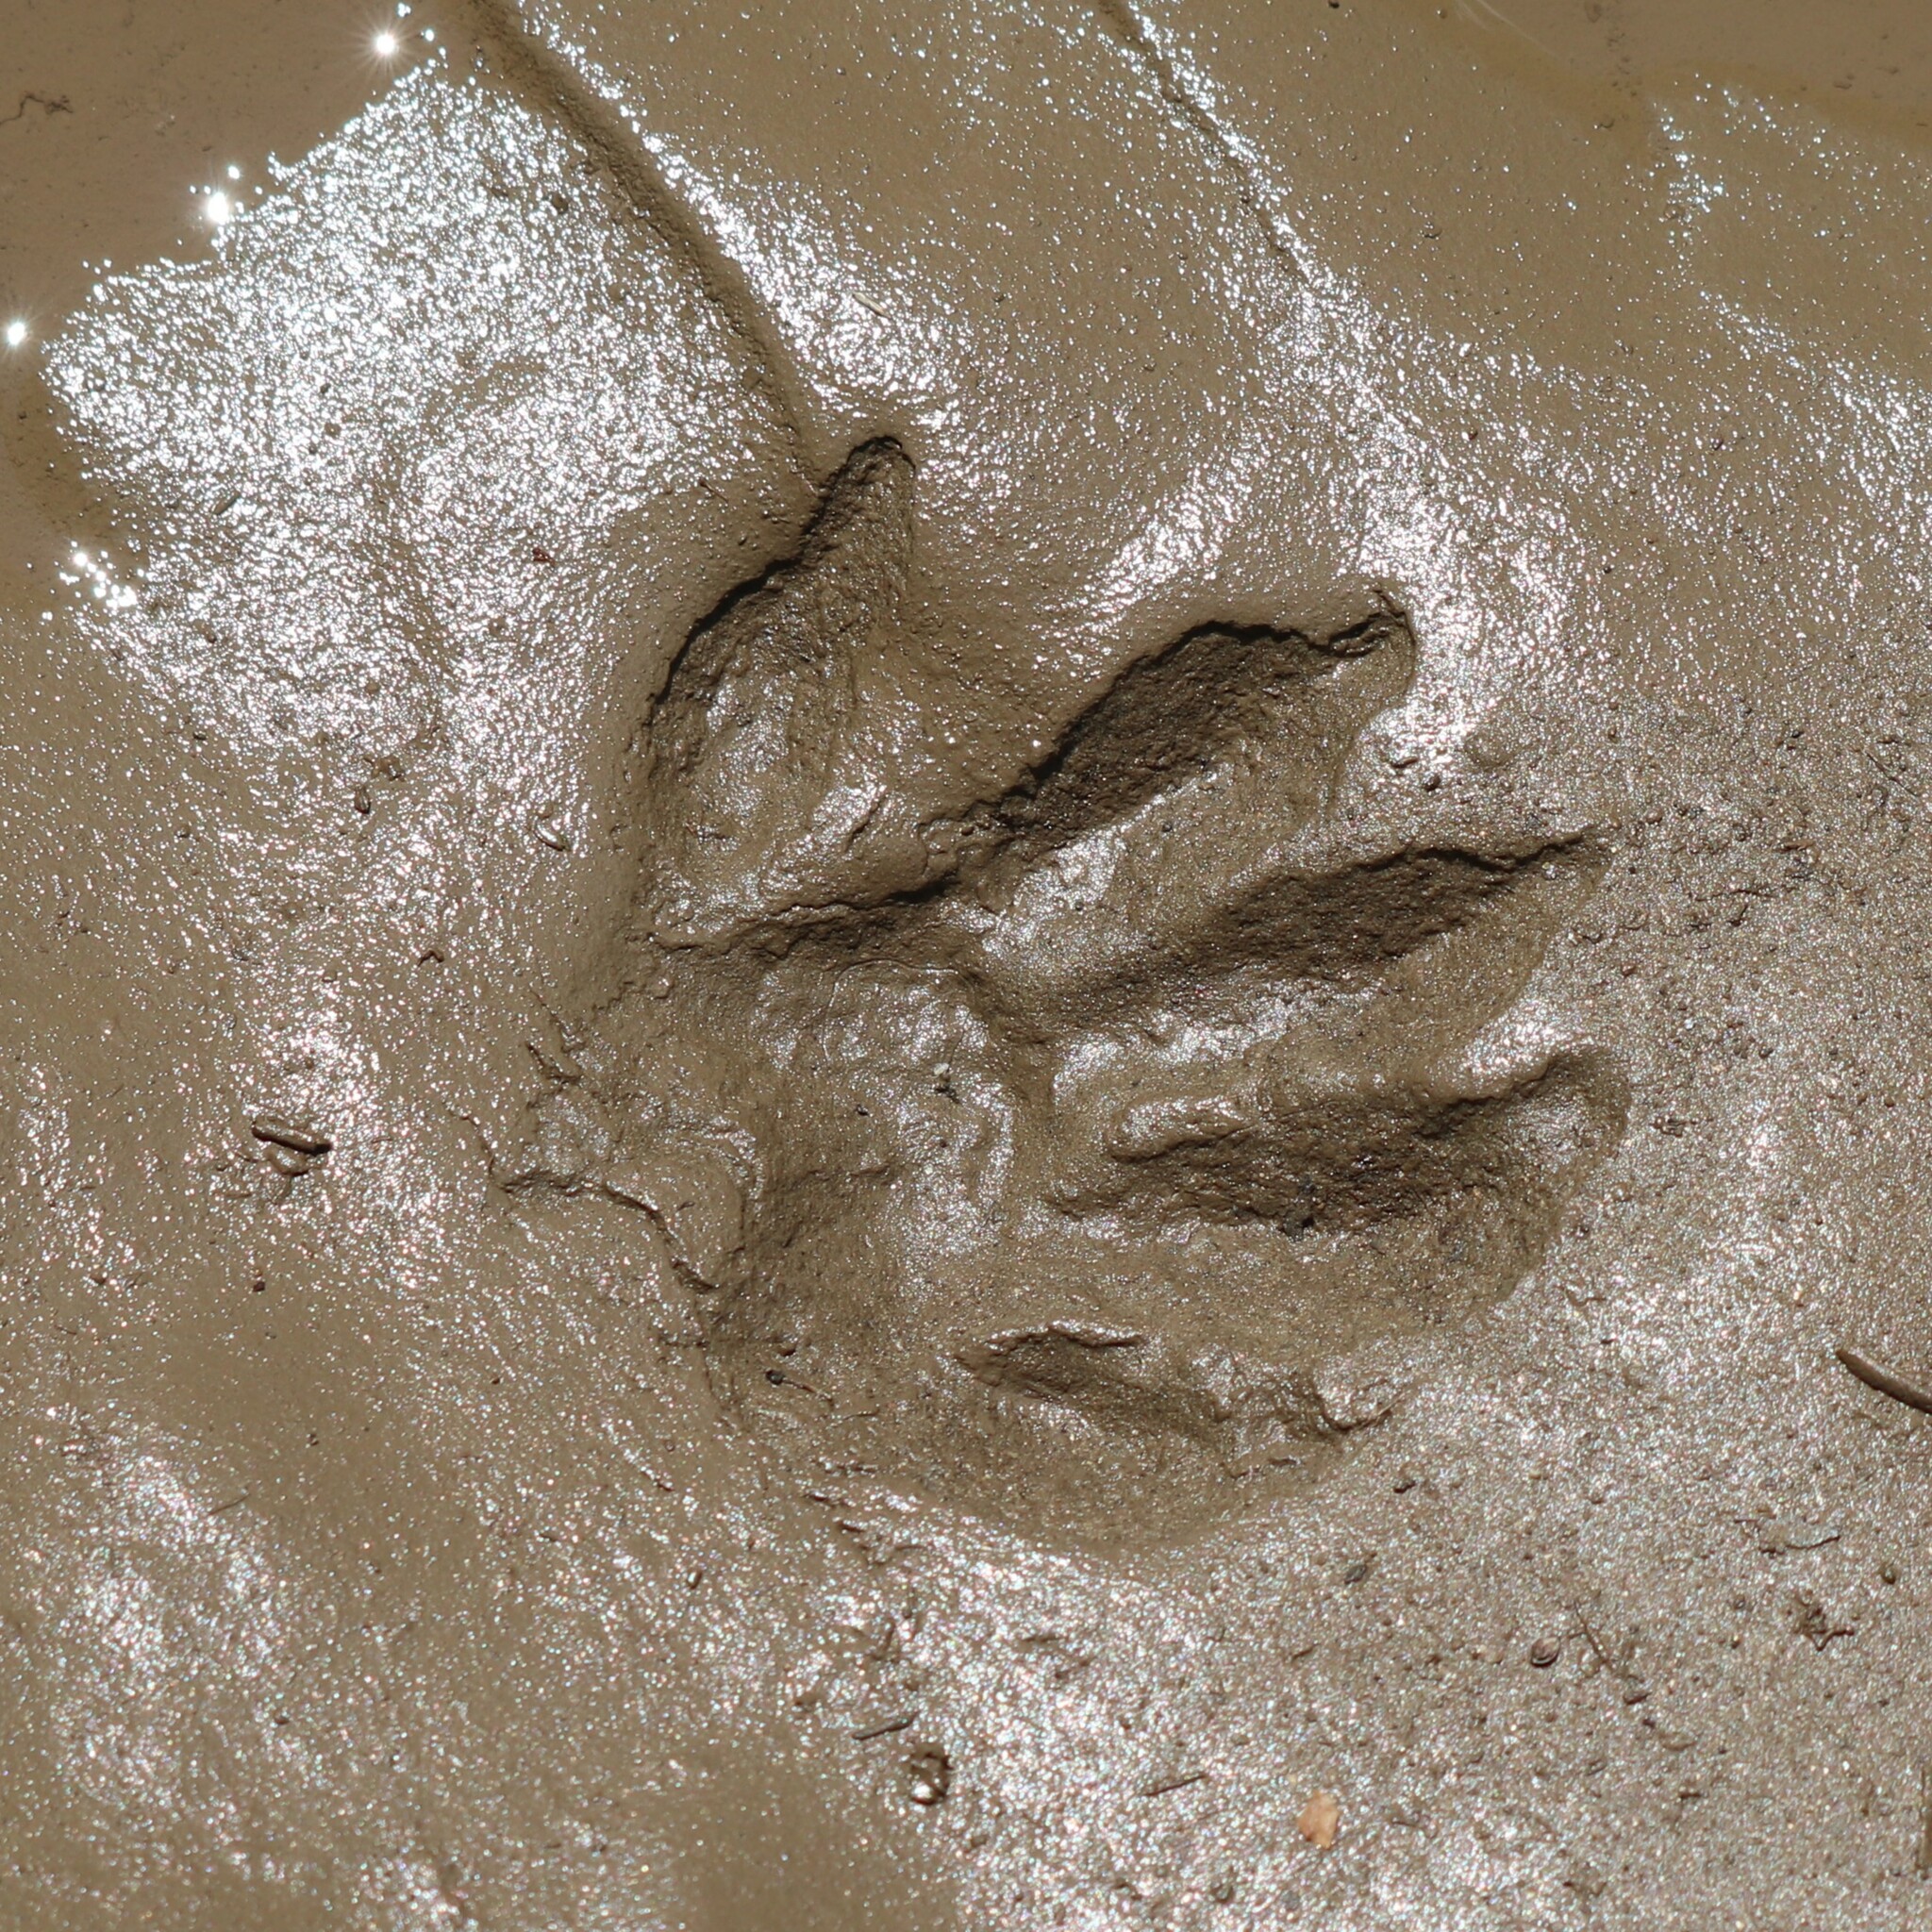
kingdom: Animalia
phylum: Chordata
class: Mammalia
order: Carnivora
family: Procyonidae
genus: Procyon
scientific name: Procyon lotor
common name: Raccoon
